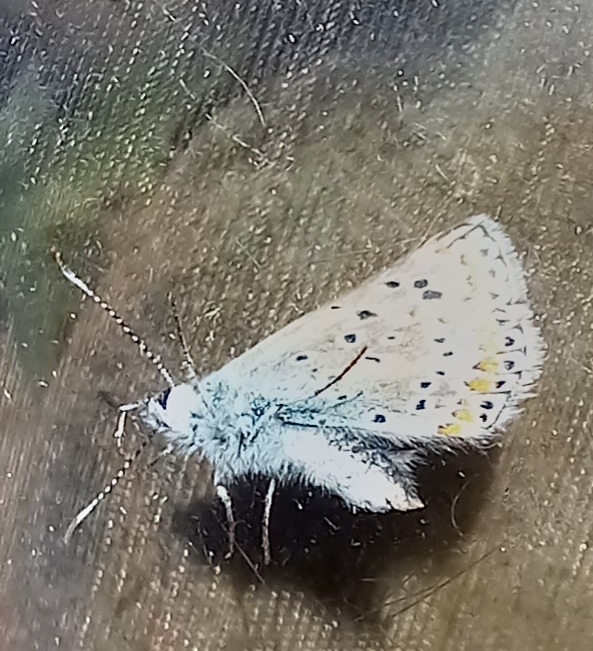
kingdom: Animalia
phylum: Arthropoda
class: Insecta
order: Lepidoptera
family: Lycaenidae
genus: Polyommatus
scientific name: Polyommatus icarus
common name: Common blue
